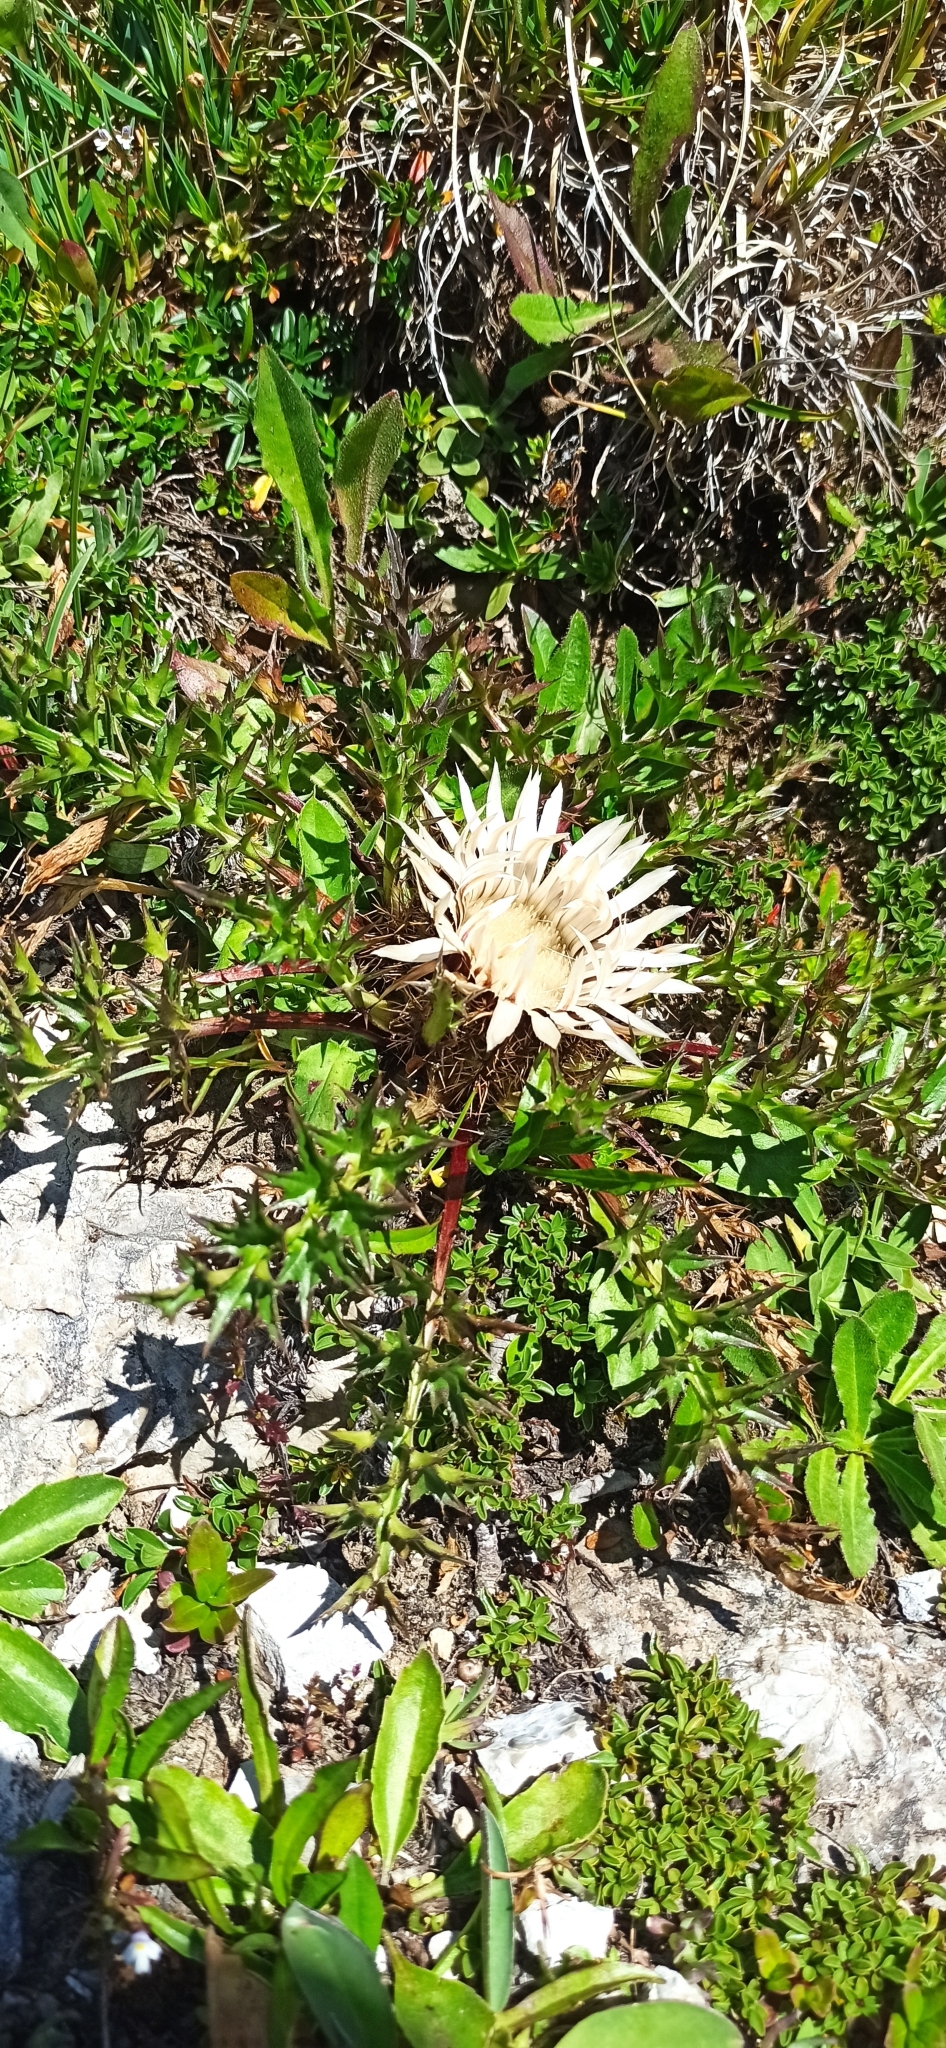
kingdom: Plantae
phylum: Tracheophyta
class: Magnoliopsida
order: Asterales
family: Asteraceae
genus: Carlina
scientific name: Carlina acaulis
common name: Stemless carline thistle
